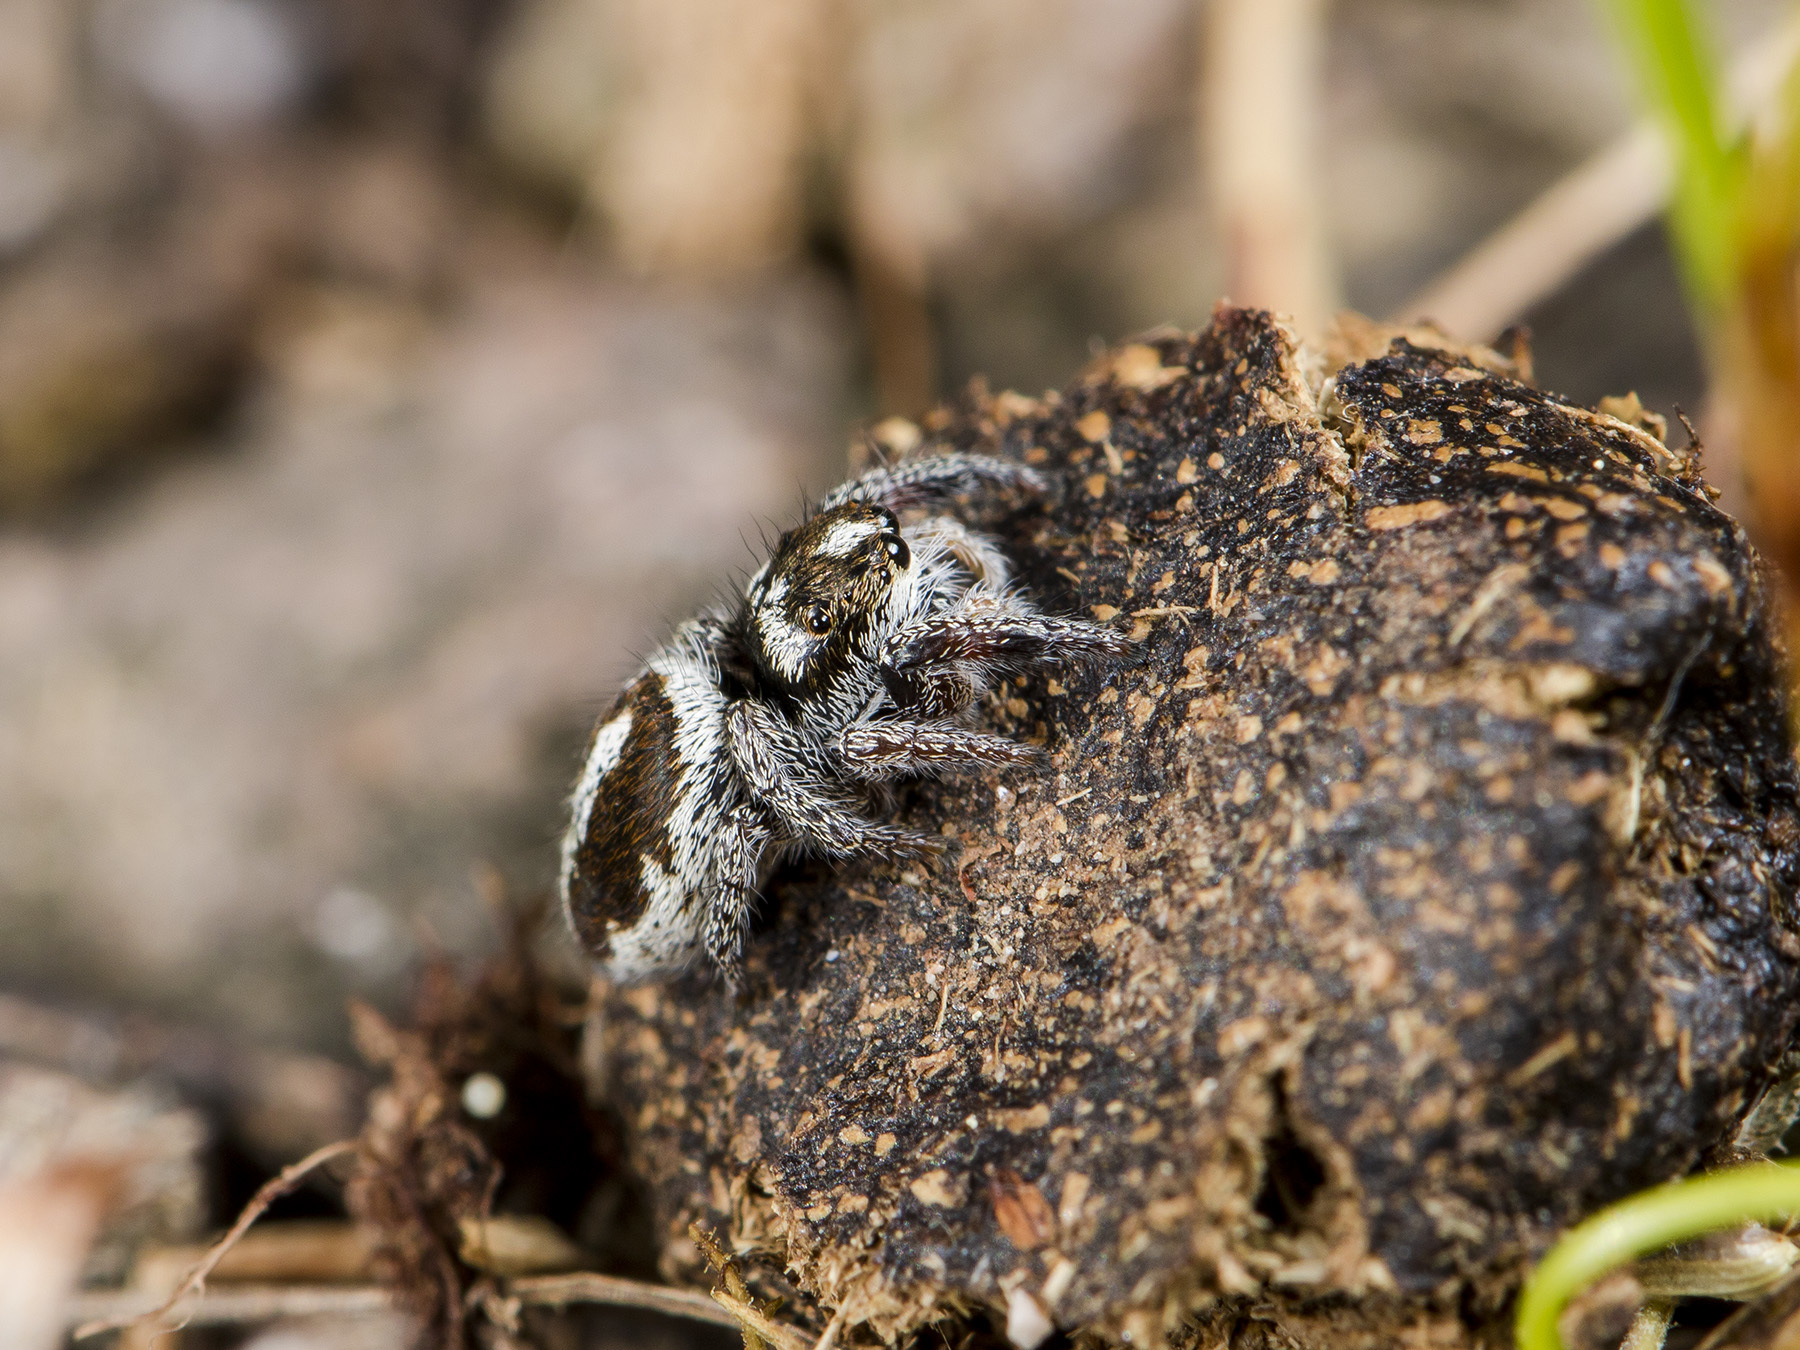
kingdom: Animalia
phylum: Arthropoda
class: Arachnida
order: Araneae
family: Salticidae
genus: Pellenes
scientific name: Pellenes allegrii
